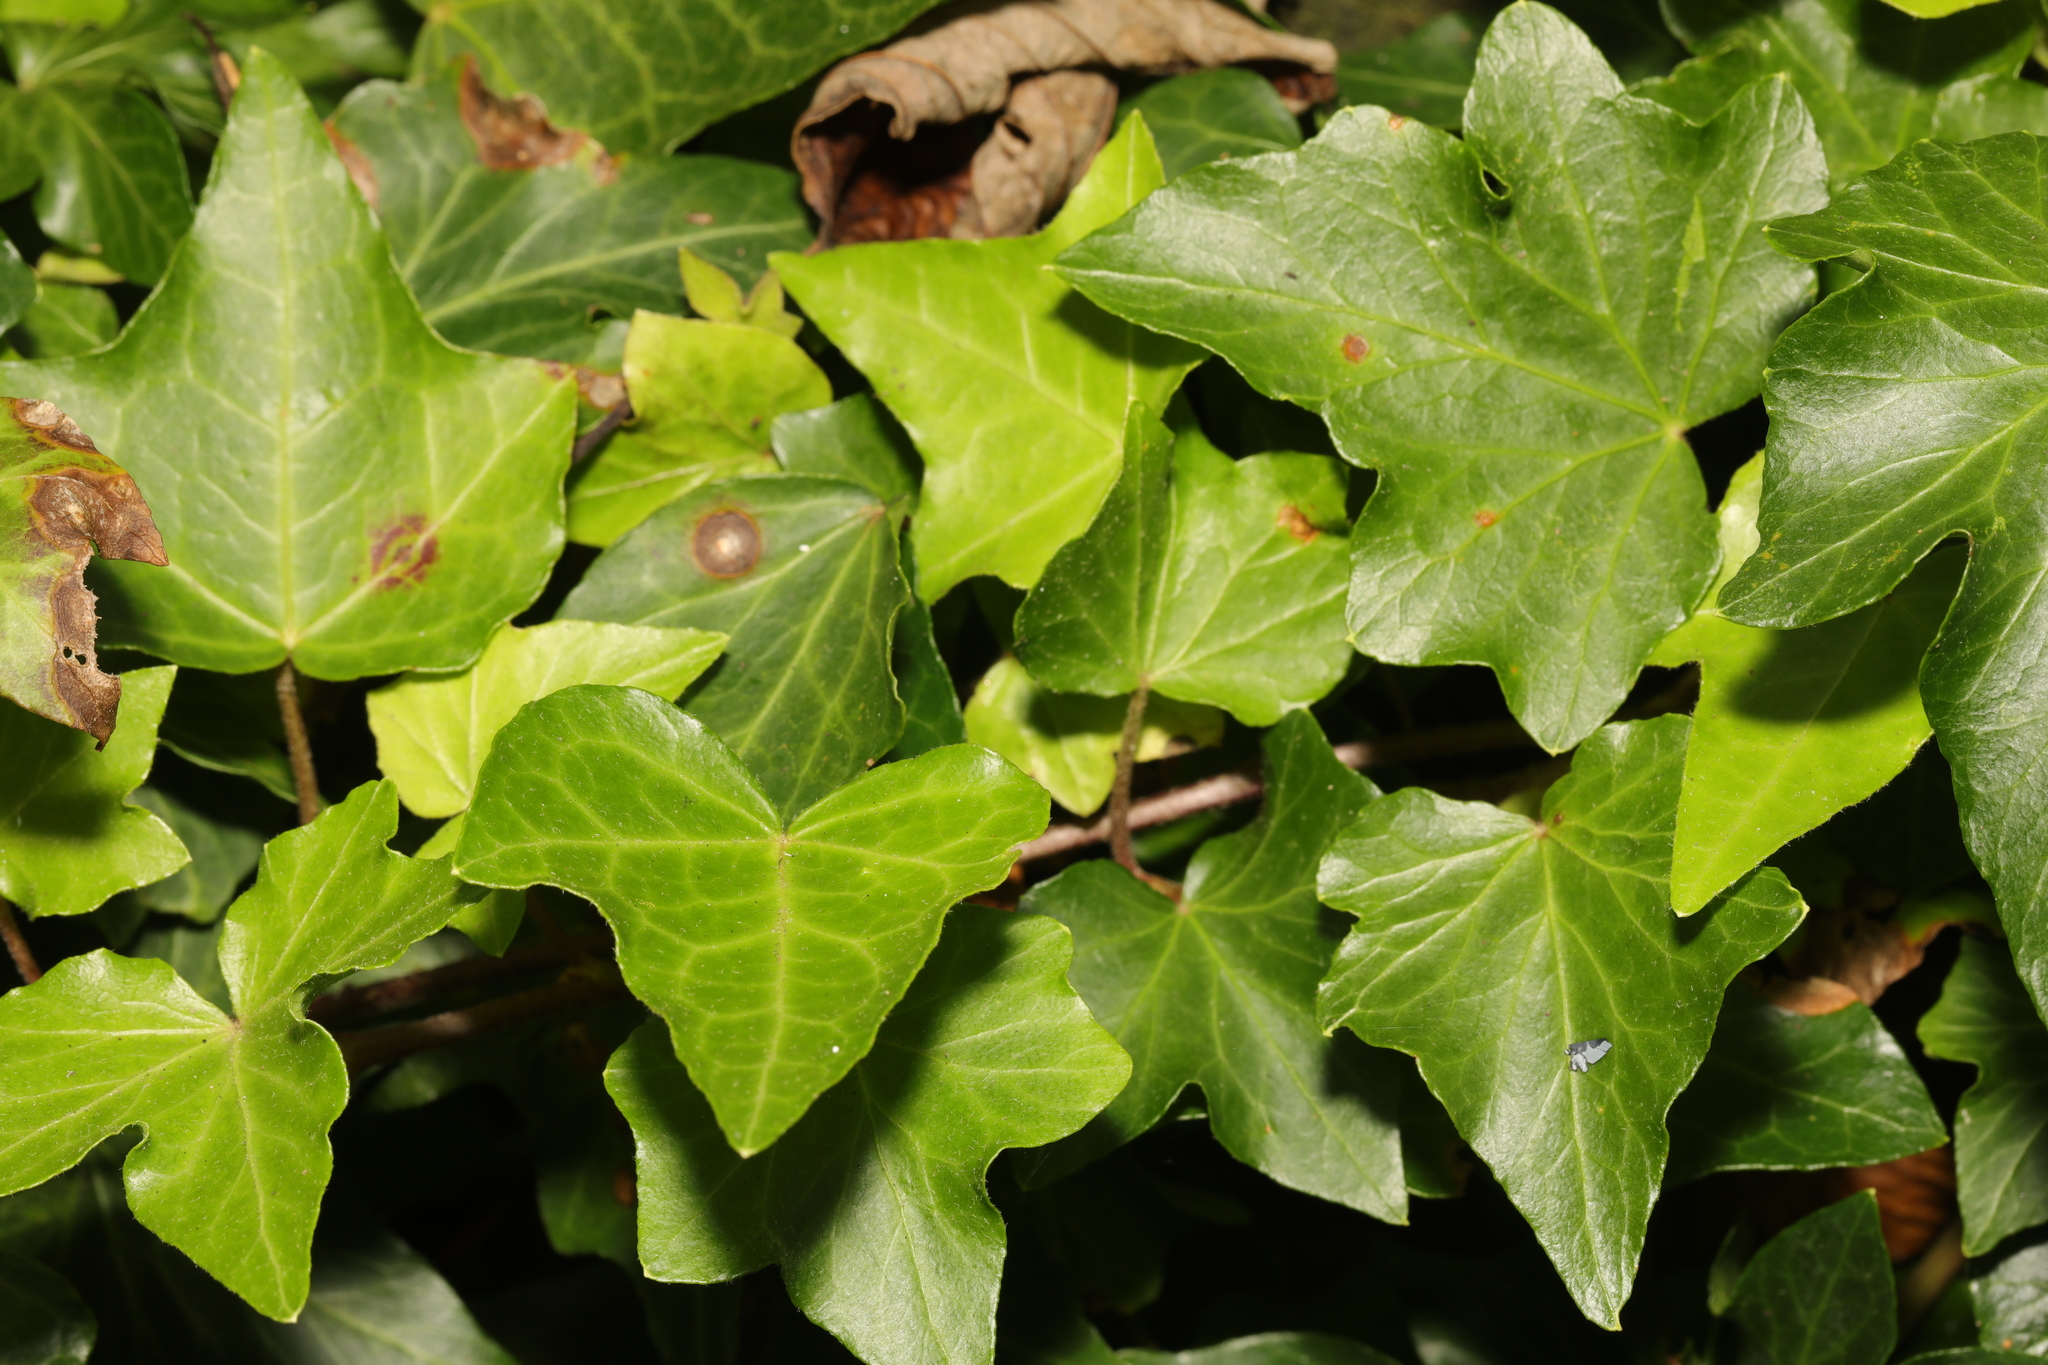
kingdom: Plantae
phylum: Tracheophyta
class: Magnoliopsida
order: Apiales
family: Araliaceae
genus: Hedera
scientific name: Hedera helix
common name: Ivy
